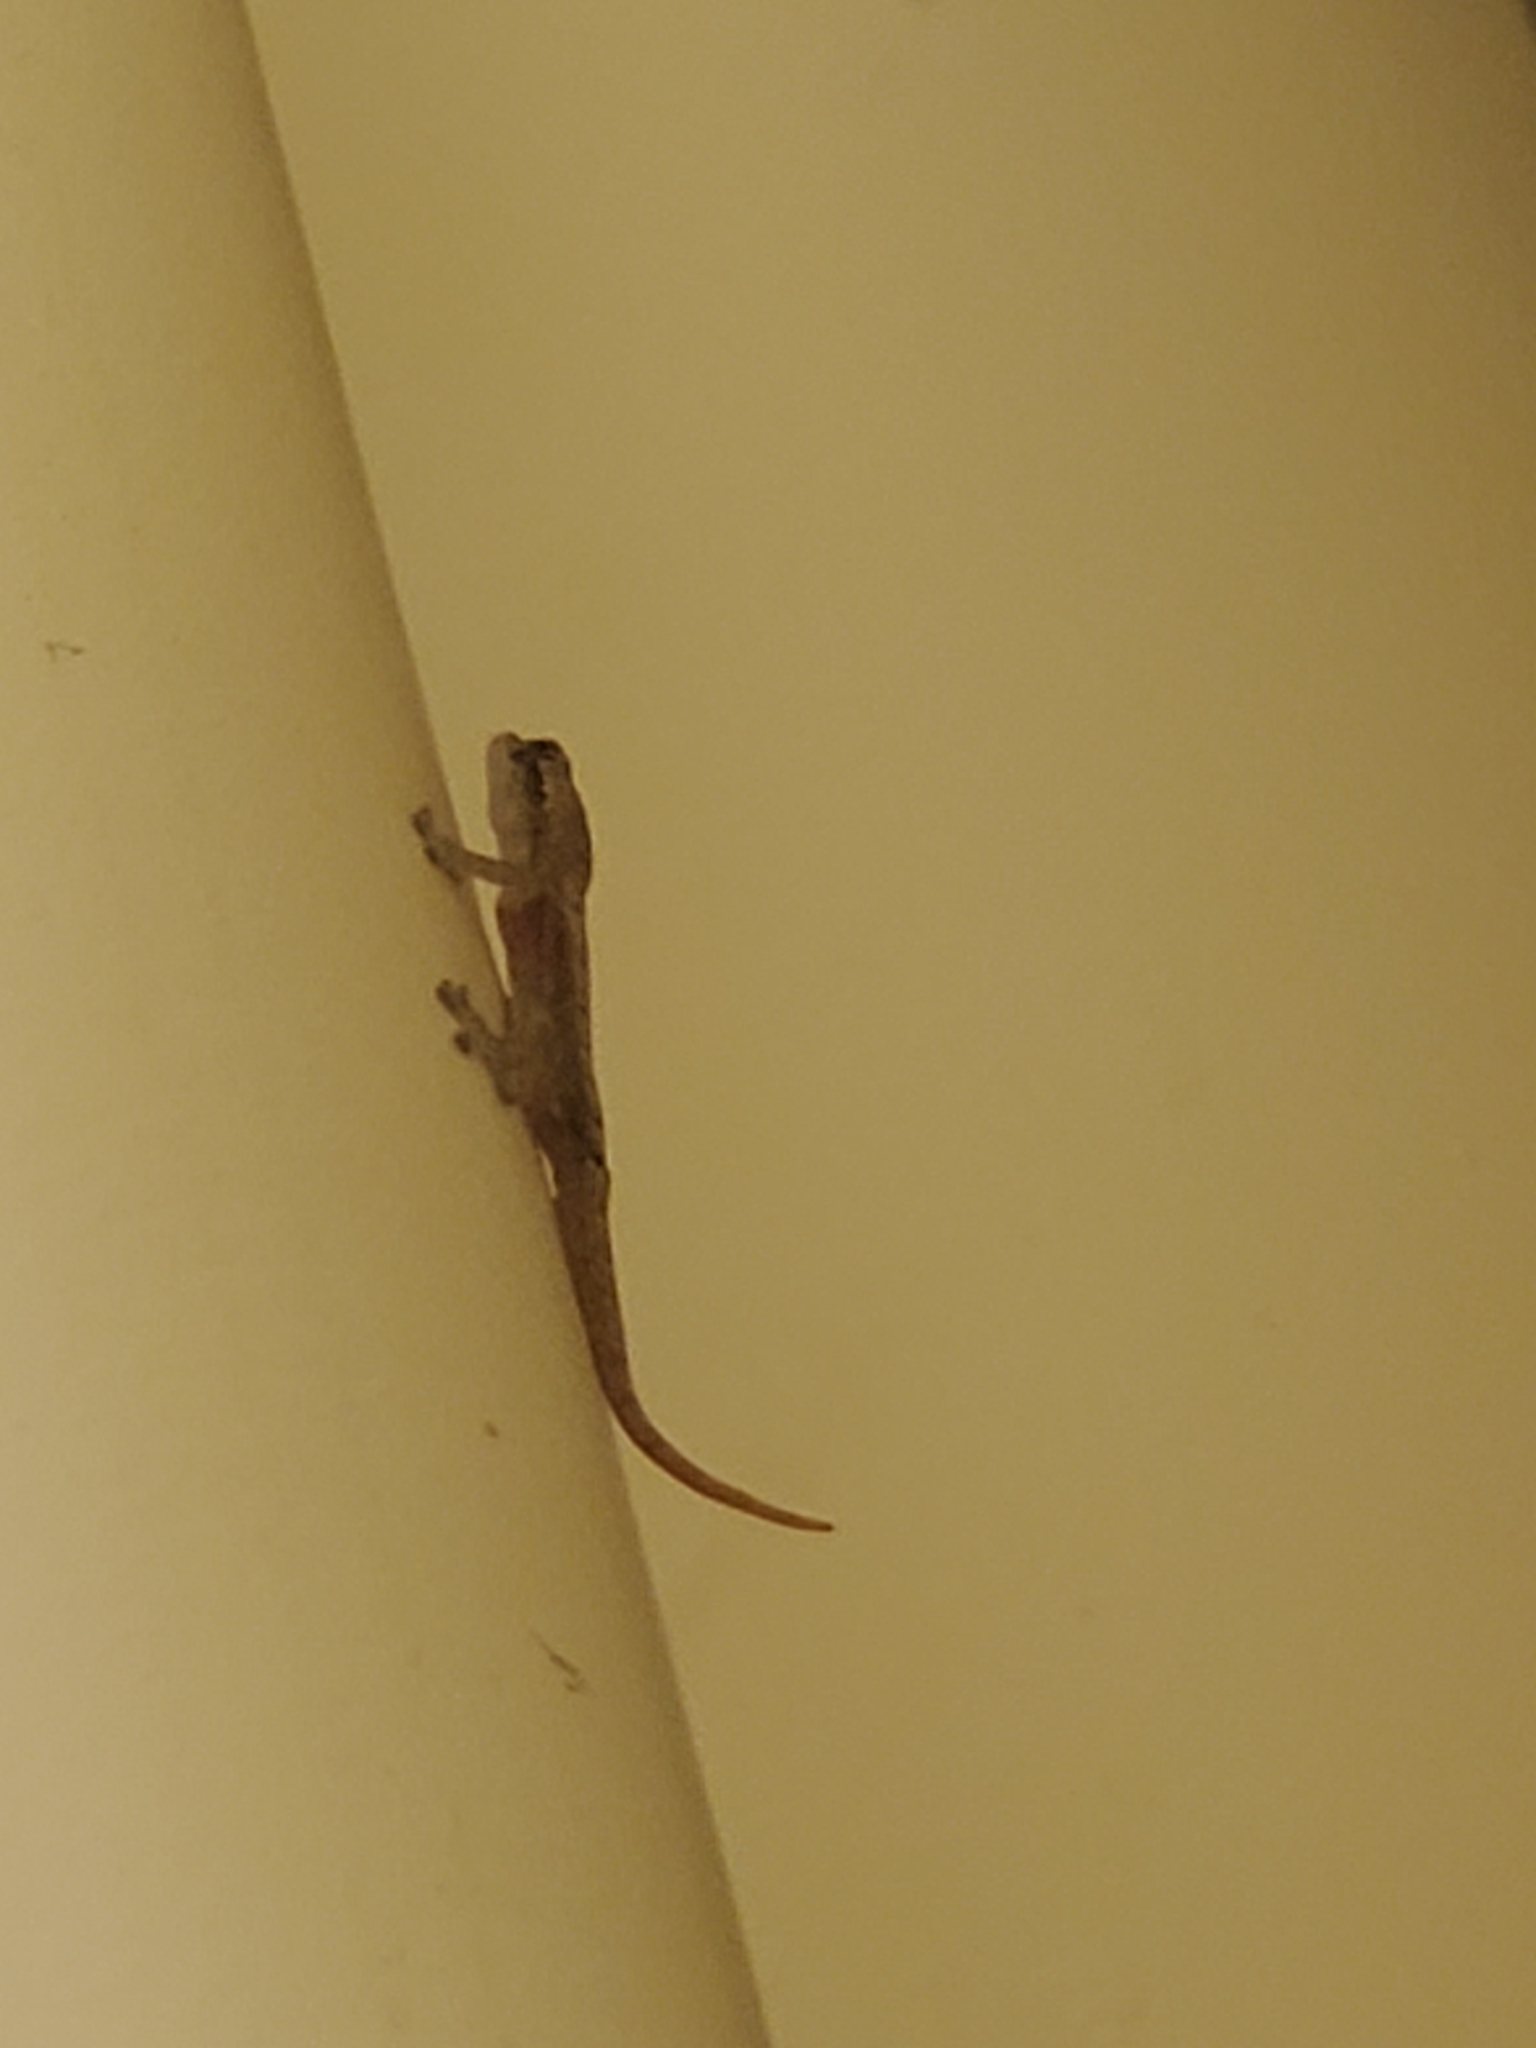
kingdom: Animalia
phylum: Chordata
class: Squamata
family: Gekkonidae
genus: Lepidodactylus
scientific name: Lepidodactylus lugubris
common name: Mourning gecko
